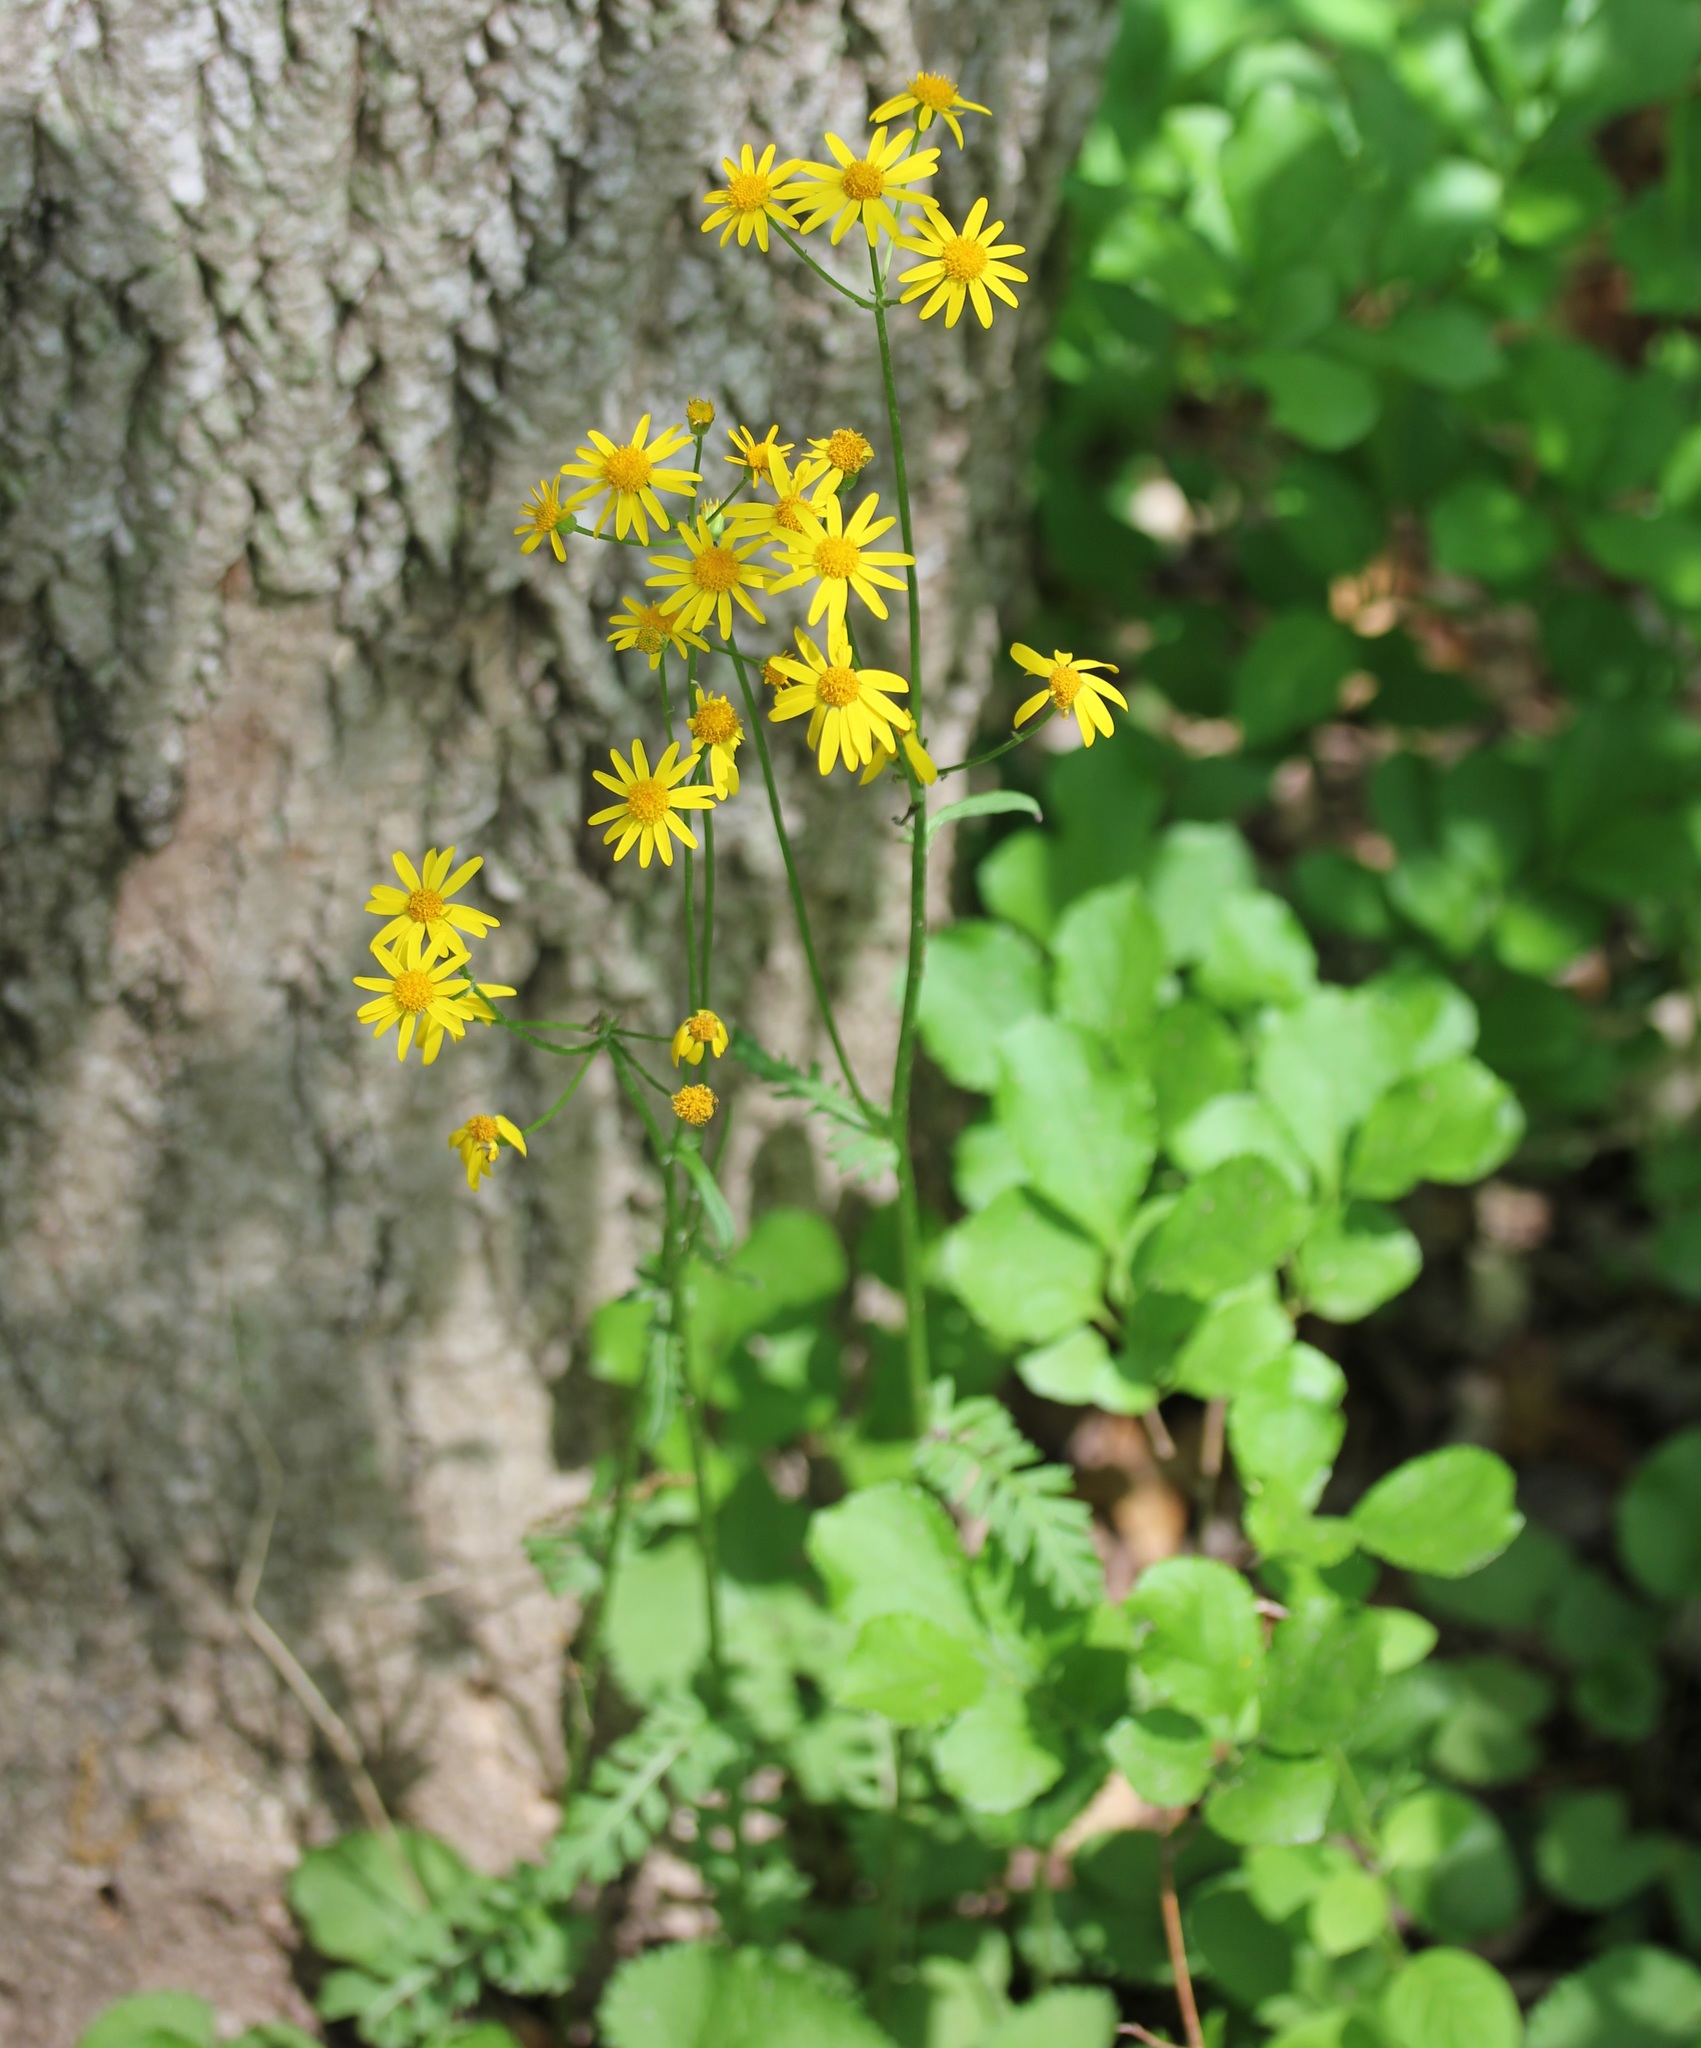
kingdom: Plantae
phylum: Tracheophyta
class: Magnoliopsida
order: Asterales
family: Asteraceae
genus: Packera
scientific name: Packera aurea
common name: Golden groundsel
